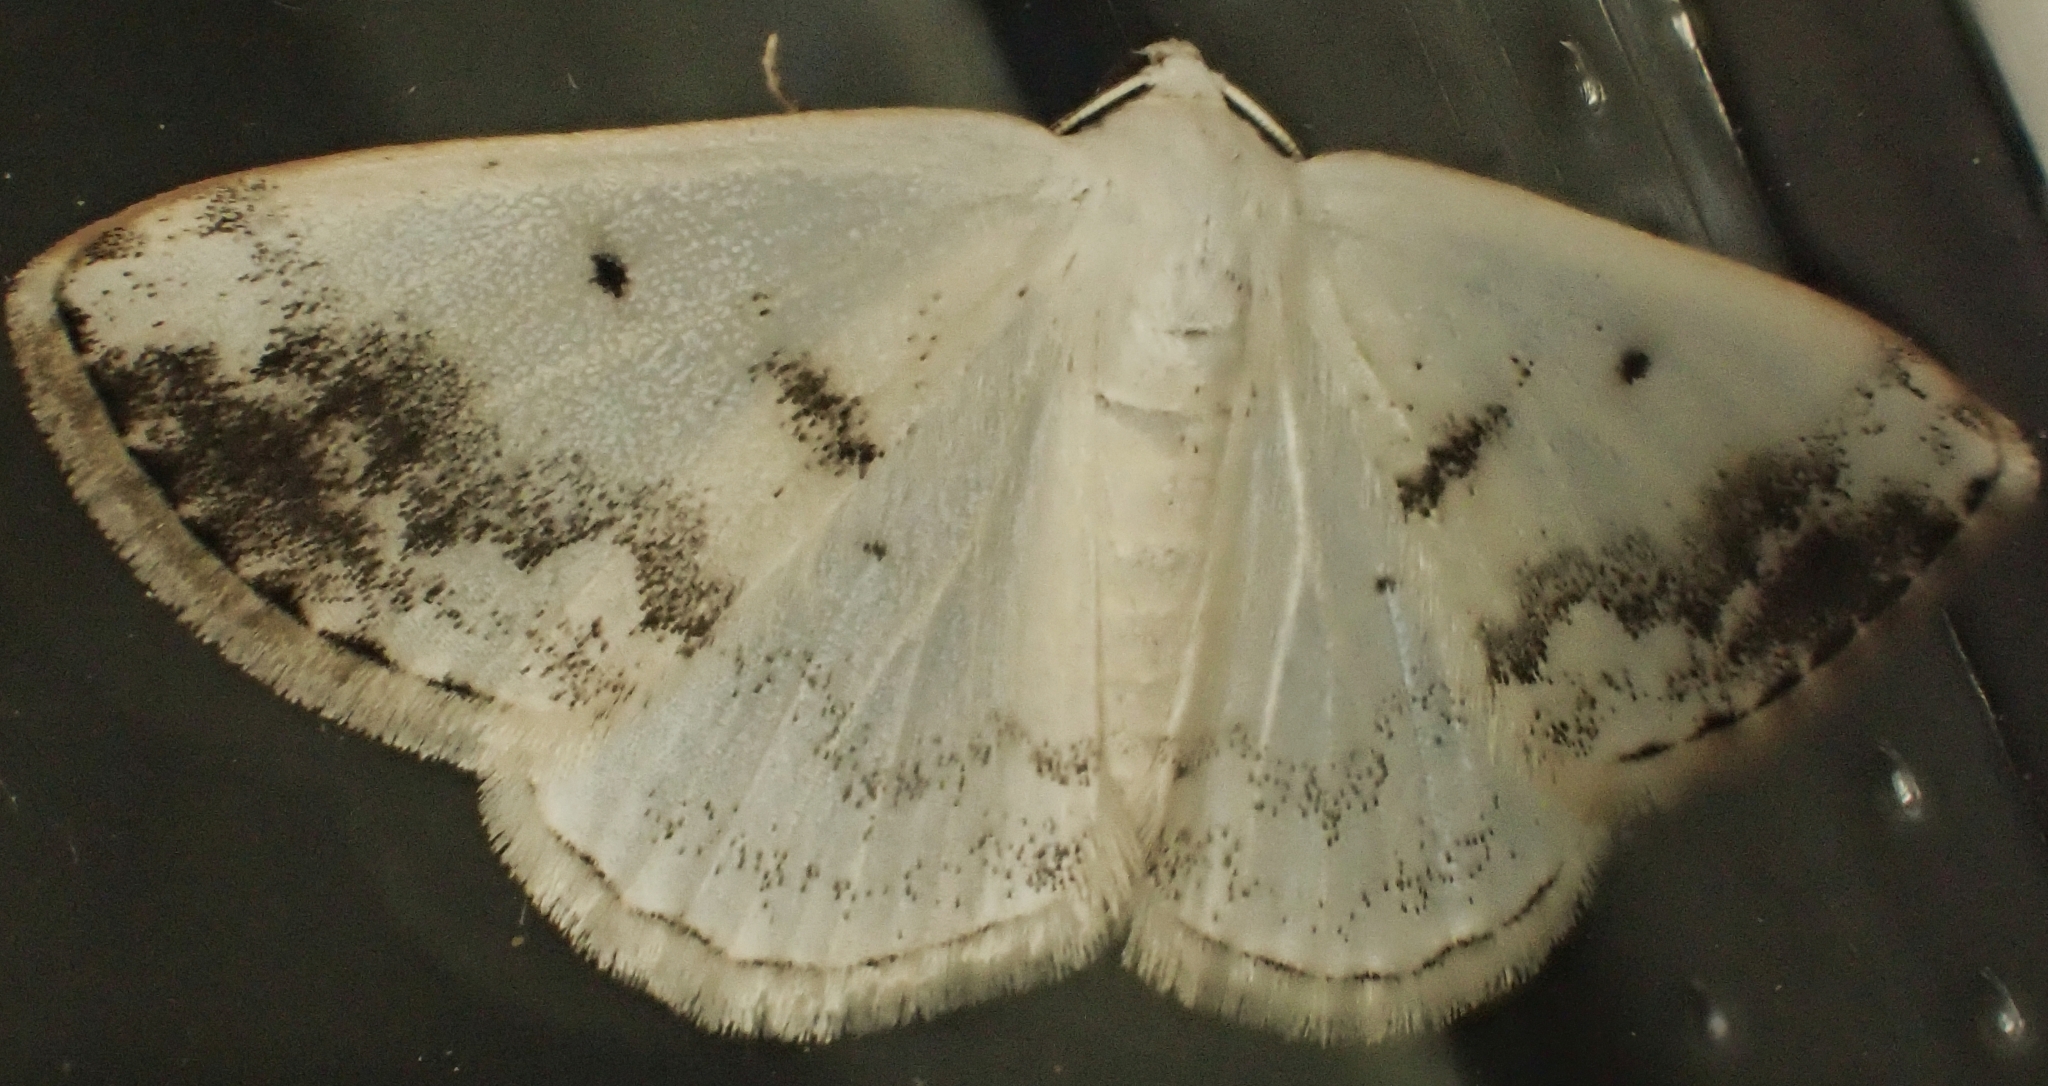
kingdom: Animalia
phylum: Arthropoda
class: Insecta
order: Lepidoptera
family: Geometridae
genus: Lomographa
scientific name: Lomographa temerata
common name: Clouded silver
